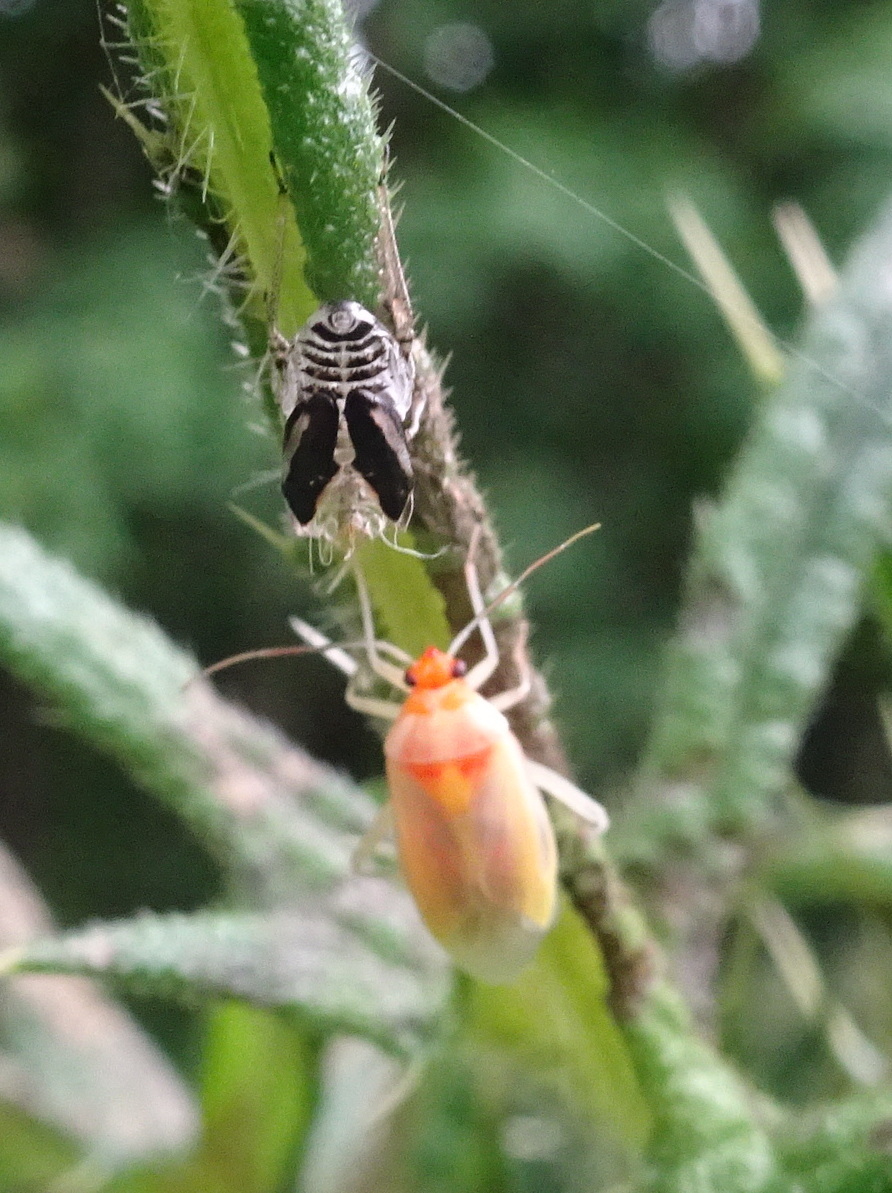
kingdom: Animalia
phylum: Arthropoda
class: Insecta
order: Hemiptera
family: Miridae
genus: Poecilocapsus
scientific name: Poecilocapsus lineatus
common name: Four-lined plant bug
